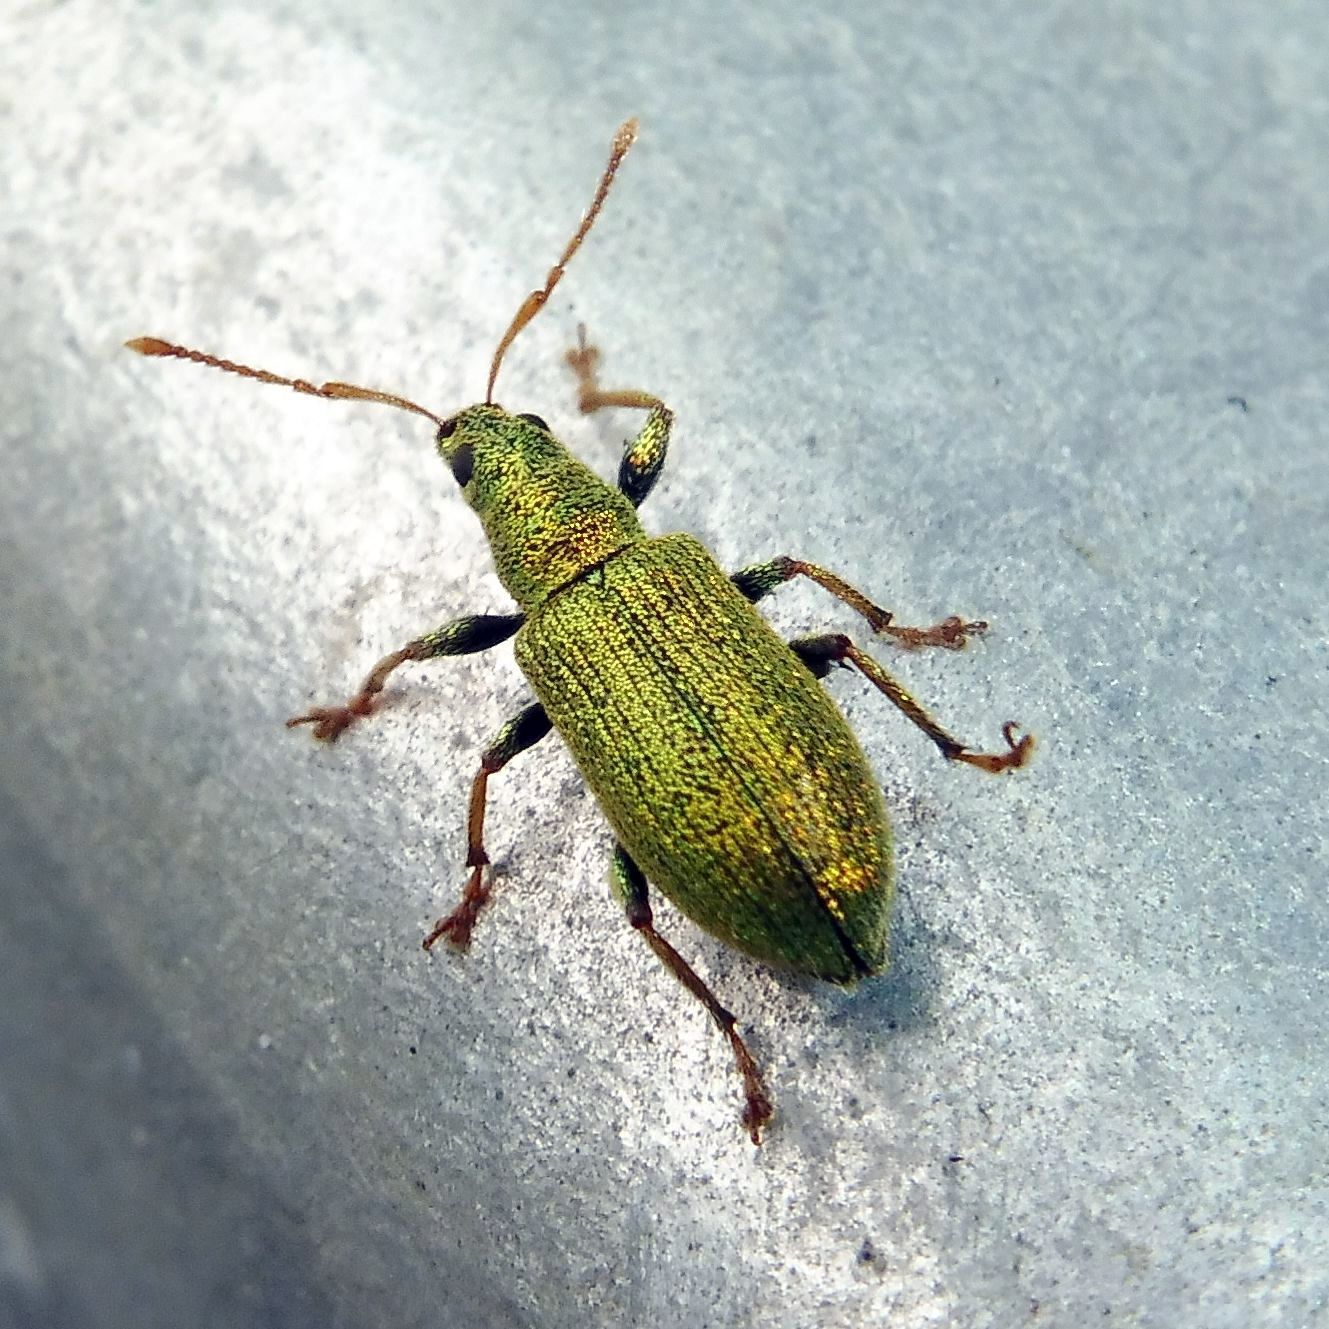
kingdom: Animalia
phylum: Arthropoda
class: Insecta
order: Coleoptera
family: Curculionidae
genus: Phyllobius
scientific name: Phyllobius argentatus
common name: Silver-green leaf weevil
